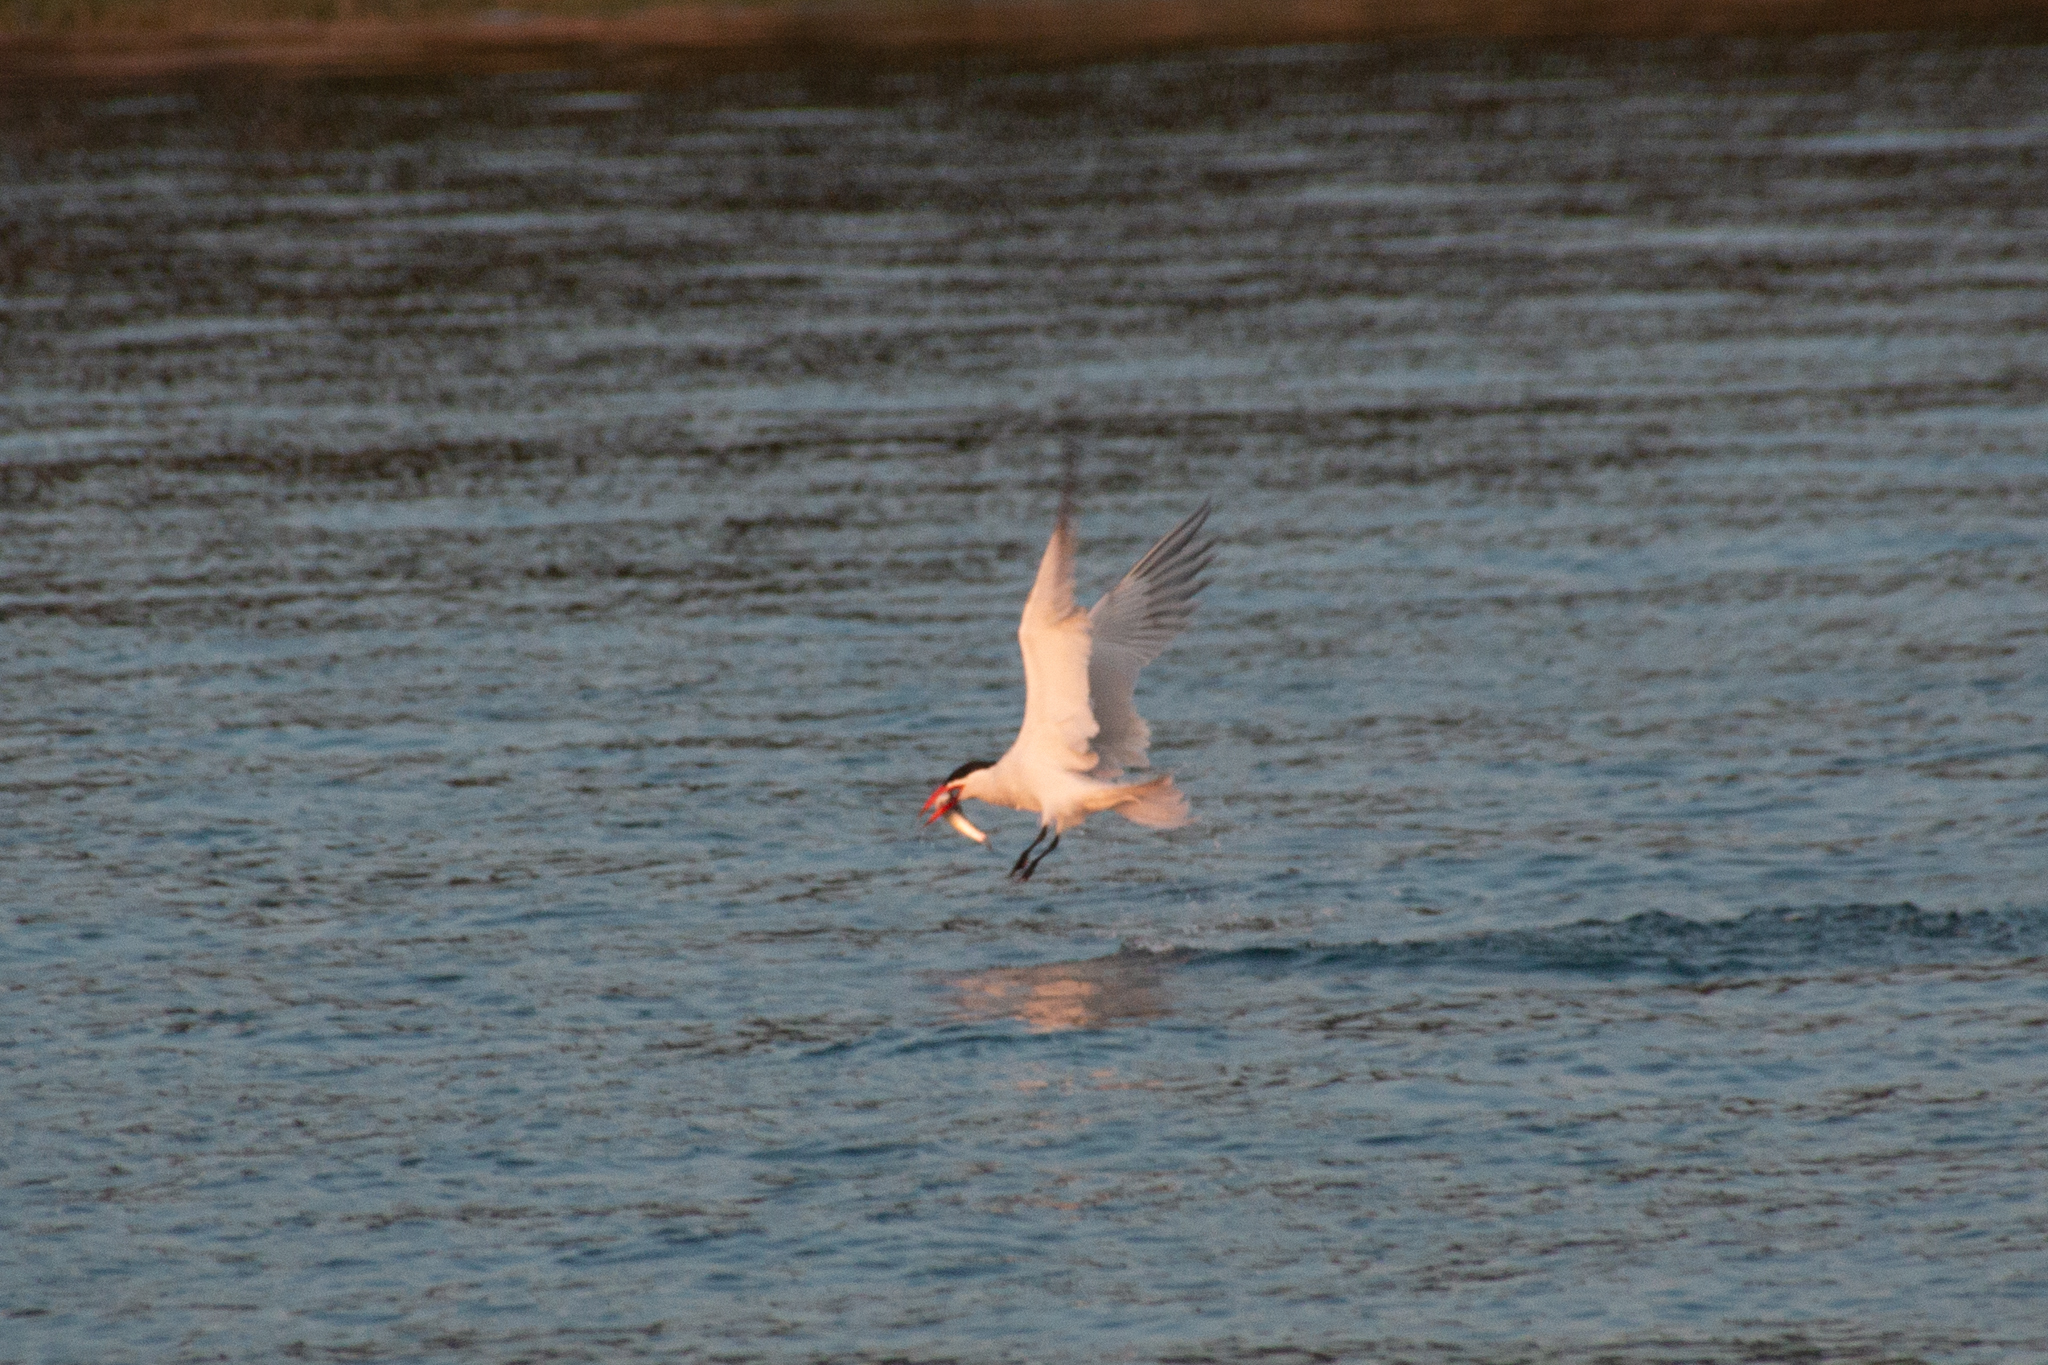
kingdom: Animalia
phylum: Chordata
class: Aves
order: Charadriiformes
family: Laridae
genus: Hydroprogne
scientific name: Hydroprogne caspia
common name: Caspian tern
